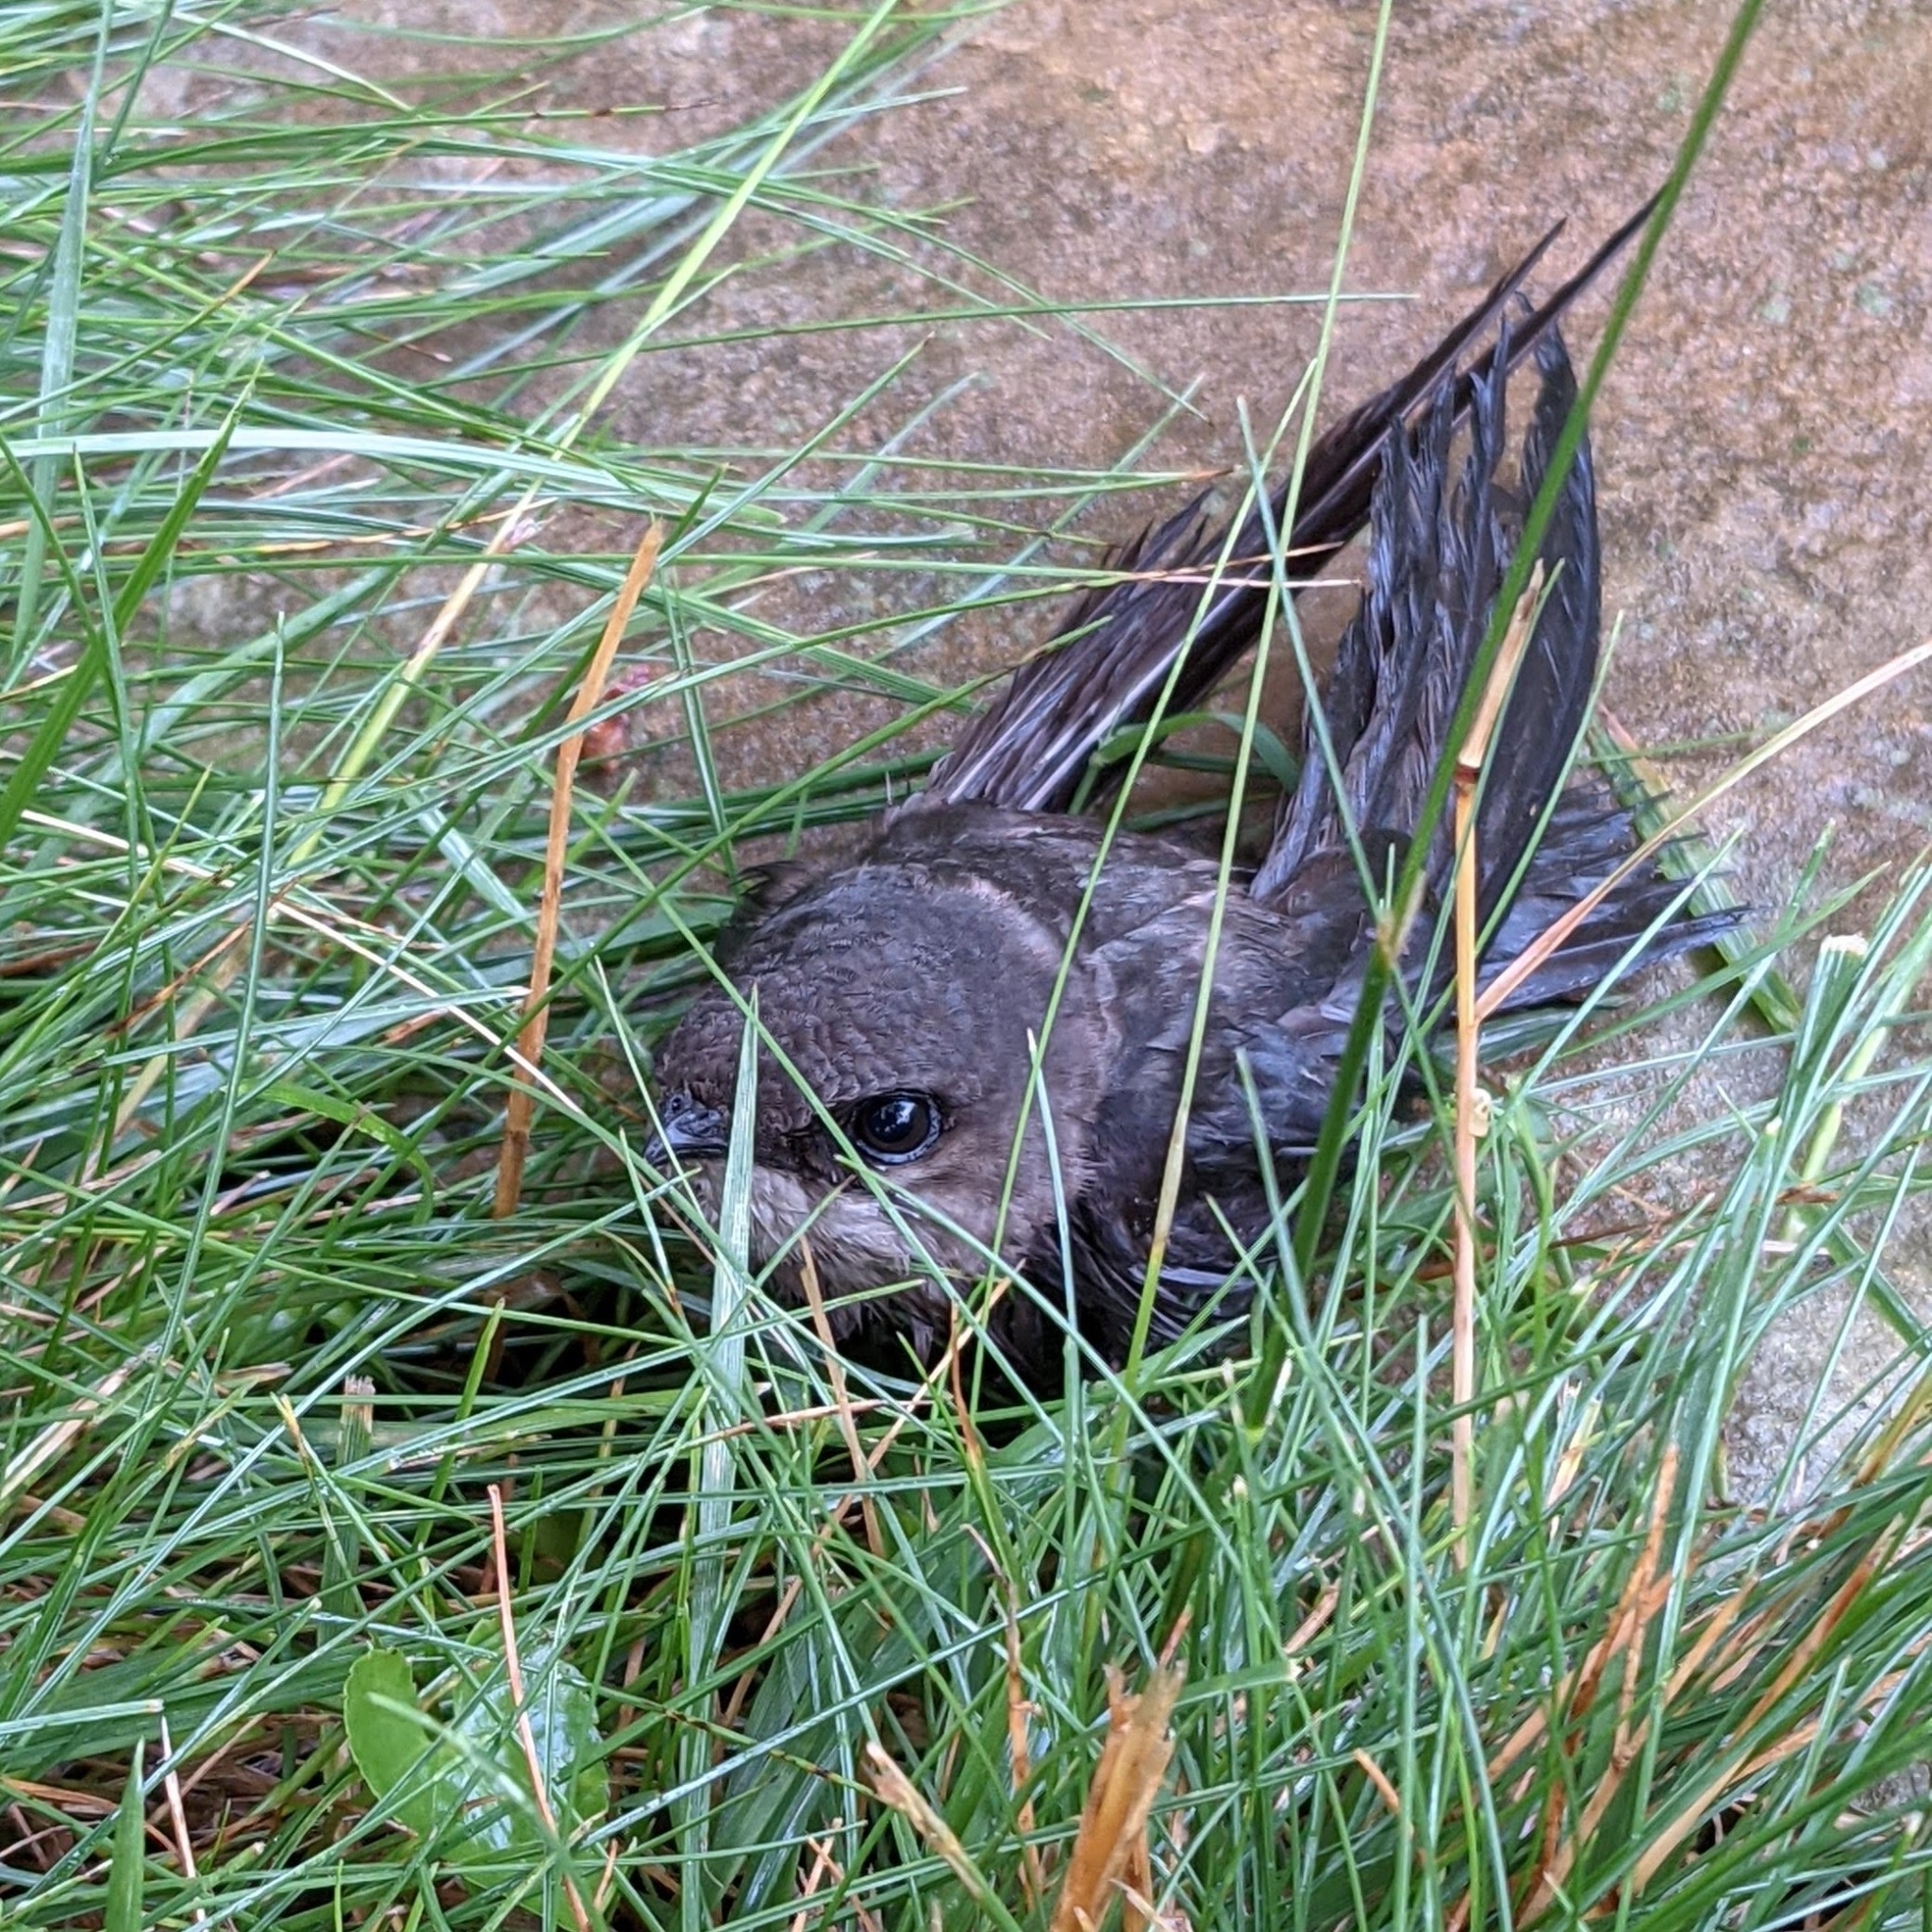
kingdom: Animalia
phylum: Chordata
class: Aves
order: Apodiformes
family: Apodidae
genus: Chaetura
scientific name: Chaetura pelagica
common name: Chimney swift
